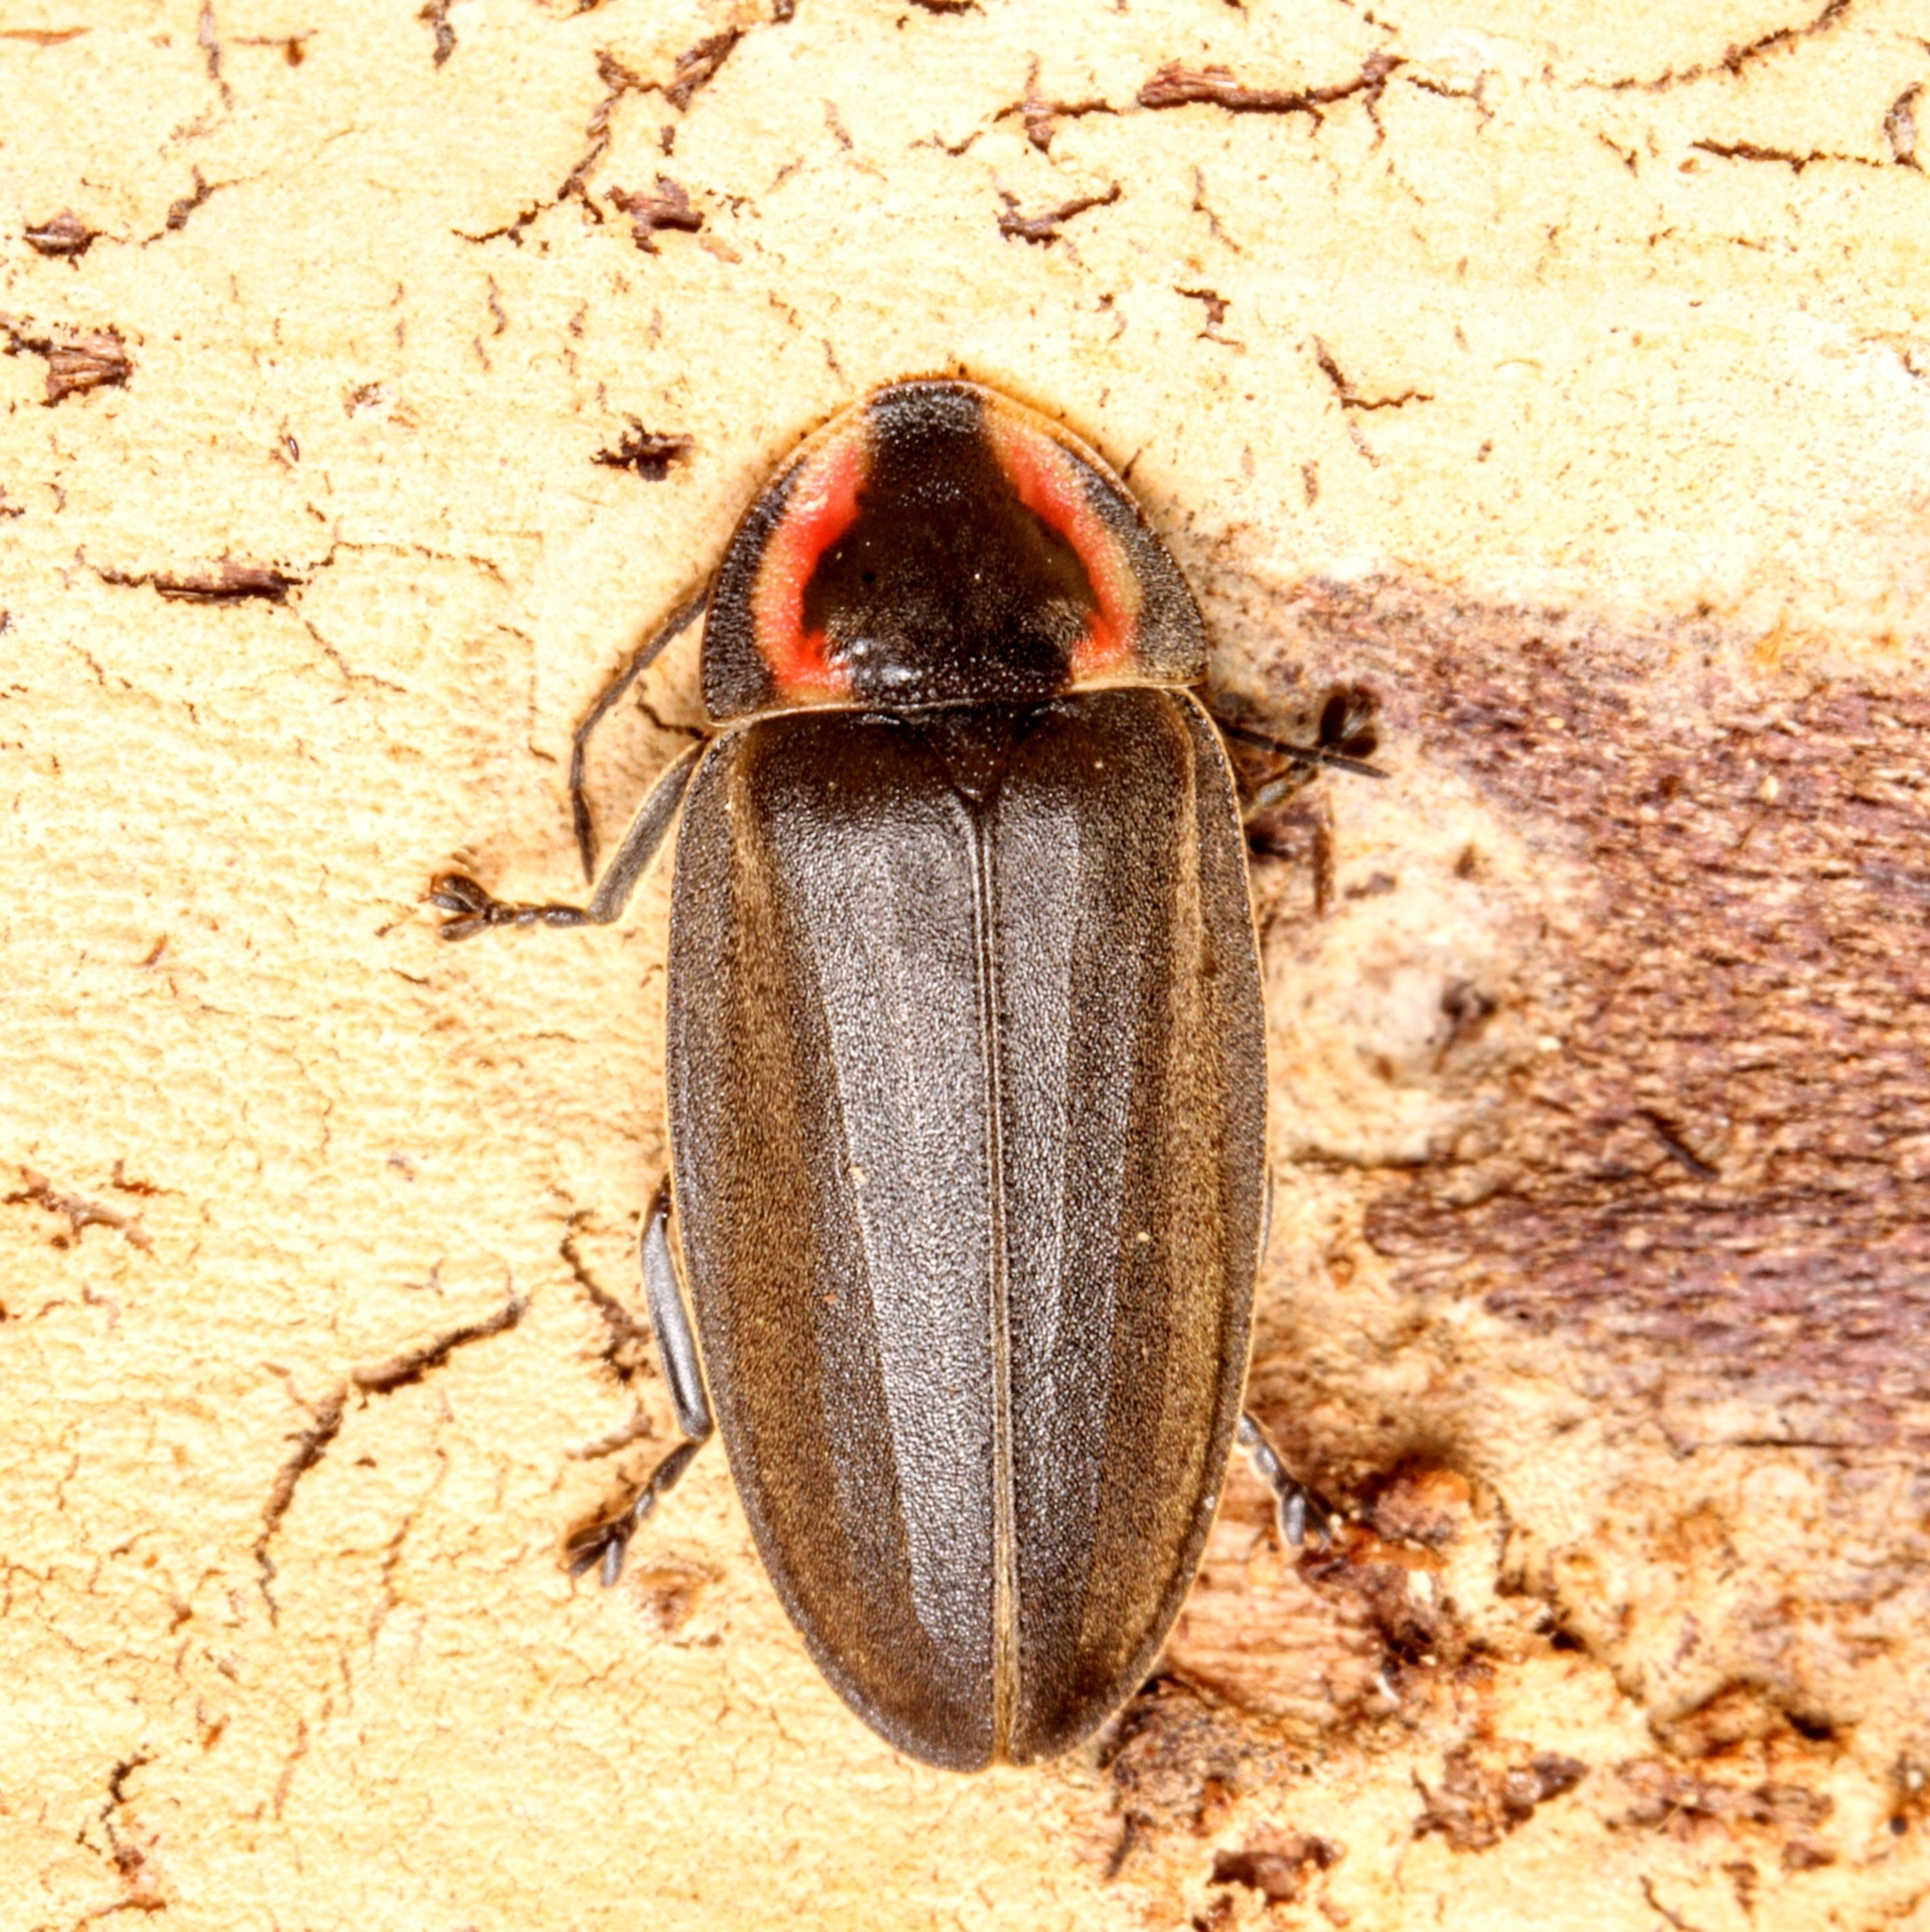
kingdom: Animalia
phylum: Arthropoda
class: Insecta
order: Coleoptera
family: Lampyridae
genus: Photinus
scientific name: Photinus corrusca
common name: Winter firefly
